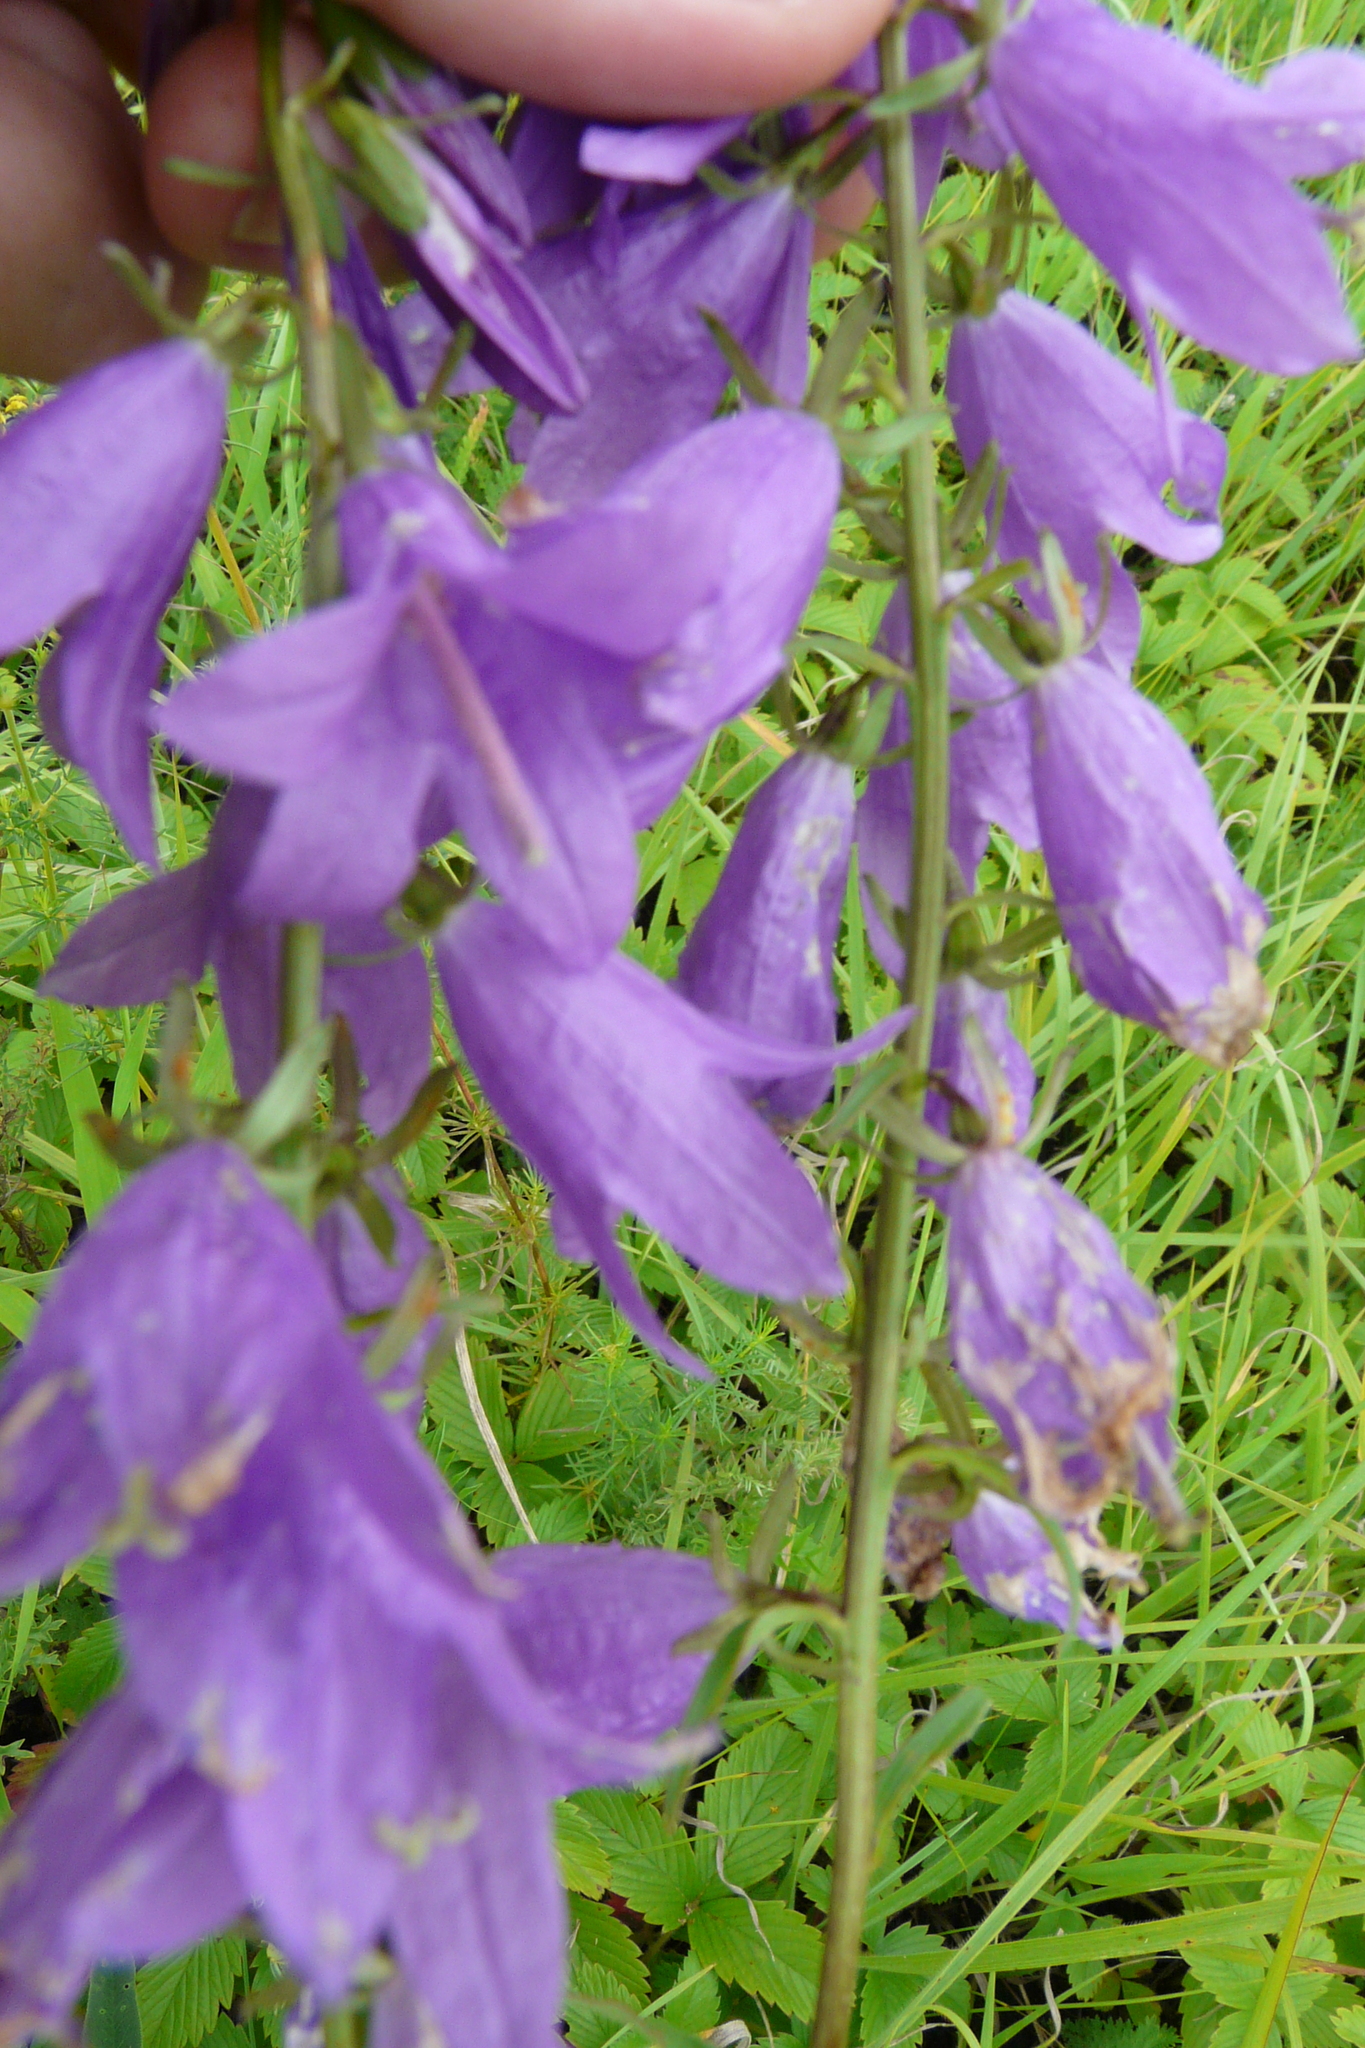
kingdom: Plantae
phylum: Tracheophyta
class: Magnoliopsida
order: Asterales
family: Campanulaceae
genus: Campanula
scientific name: Campanula rapunculoides
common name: Creeping bellflower
